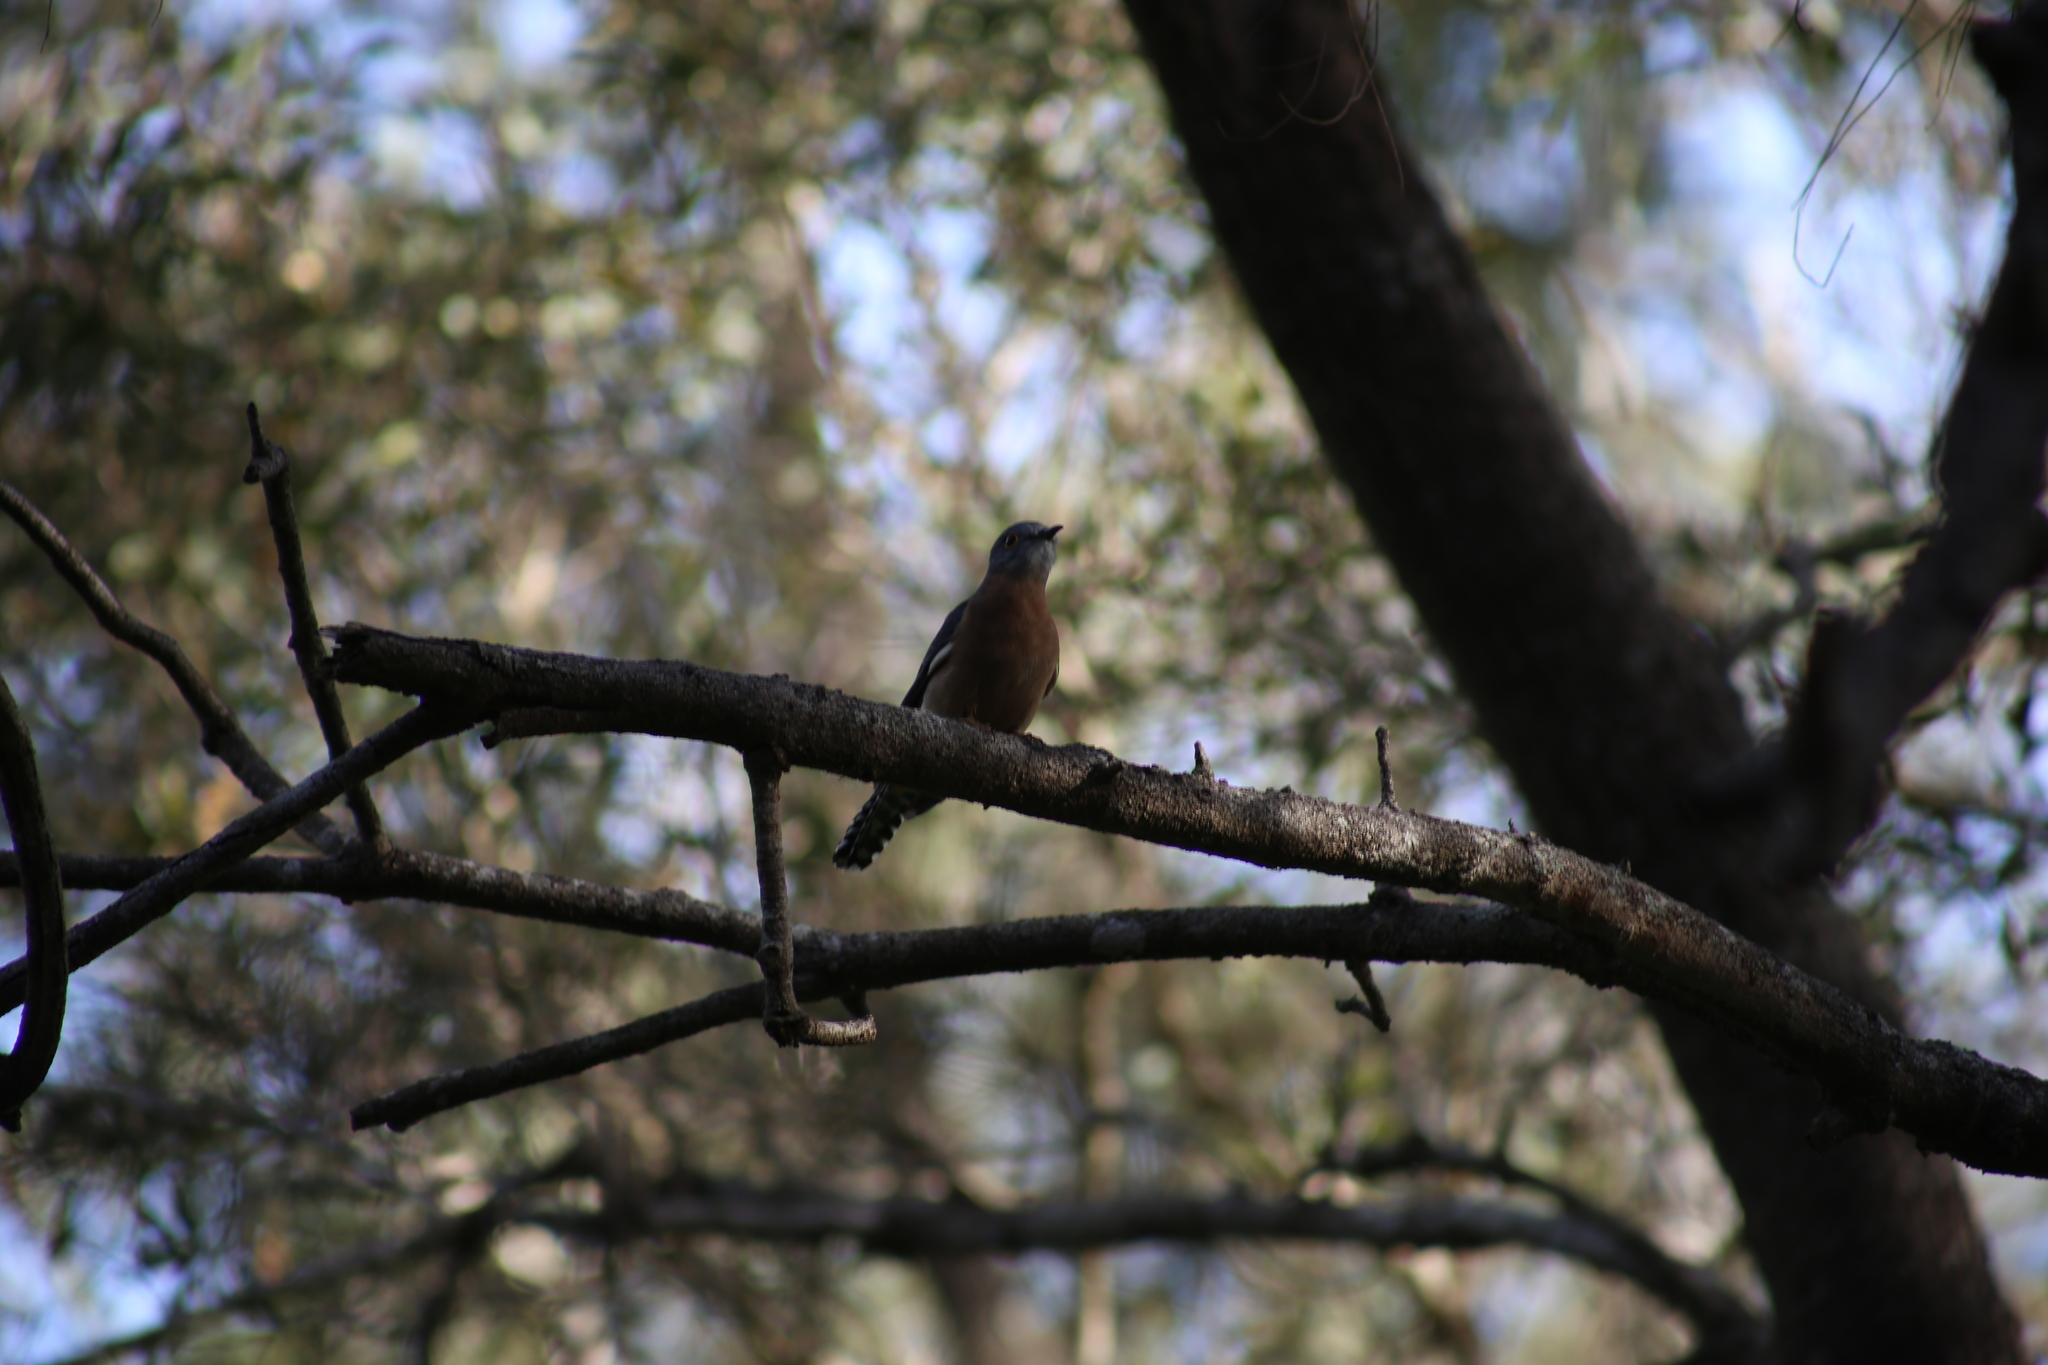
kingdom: Animalia
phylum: Chordata
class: Aves
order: Cuculiformes
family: Cuculidae
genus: Cacomantis
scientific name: Cacomantis flabelliformis
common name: Fan-tailed cuckoo
